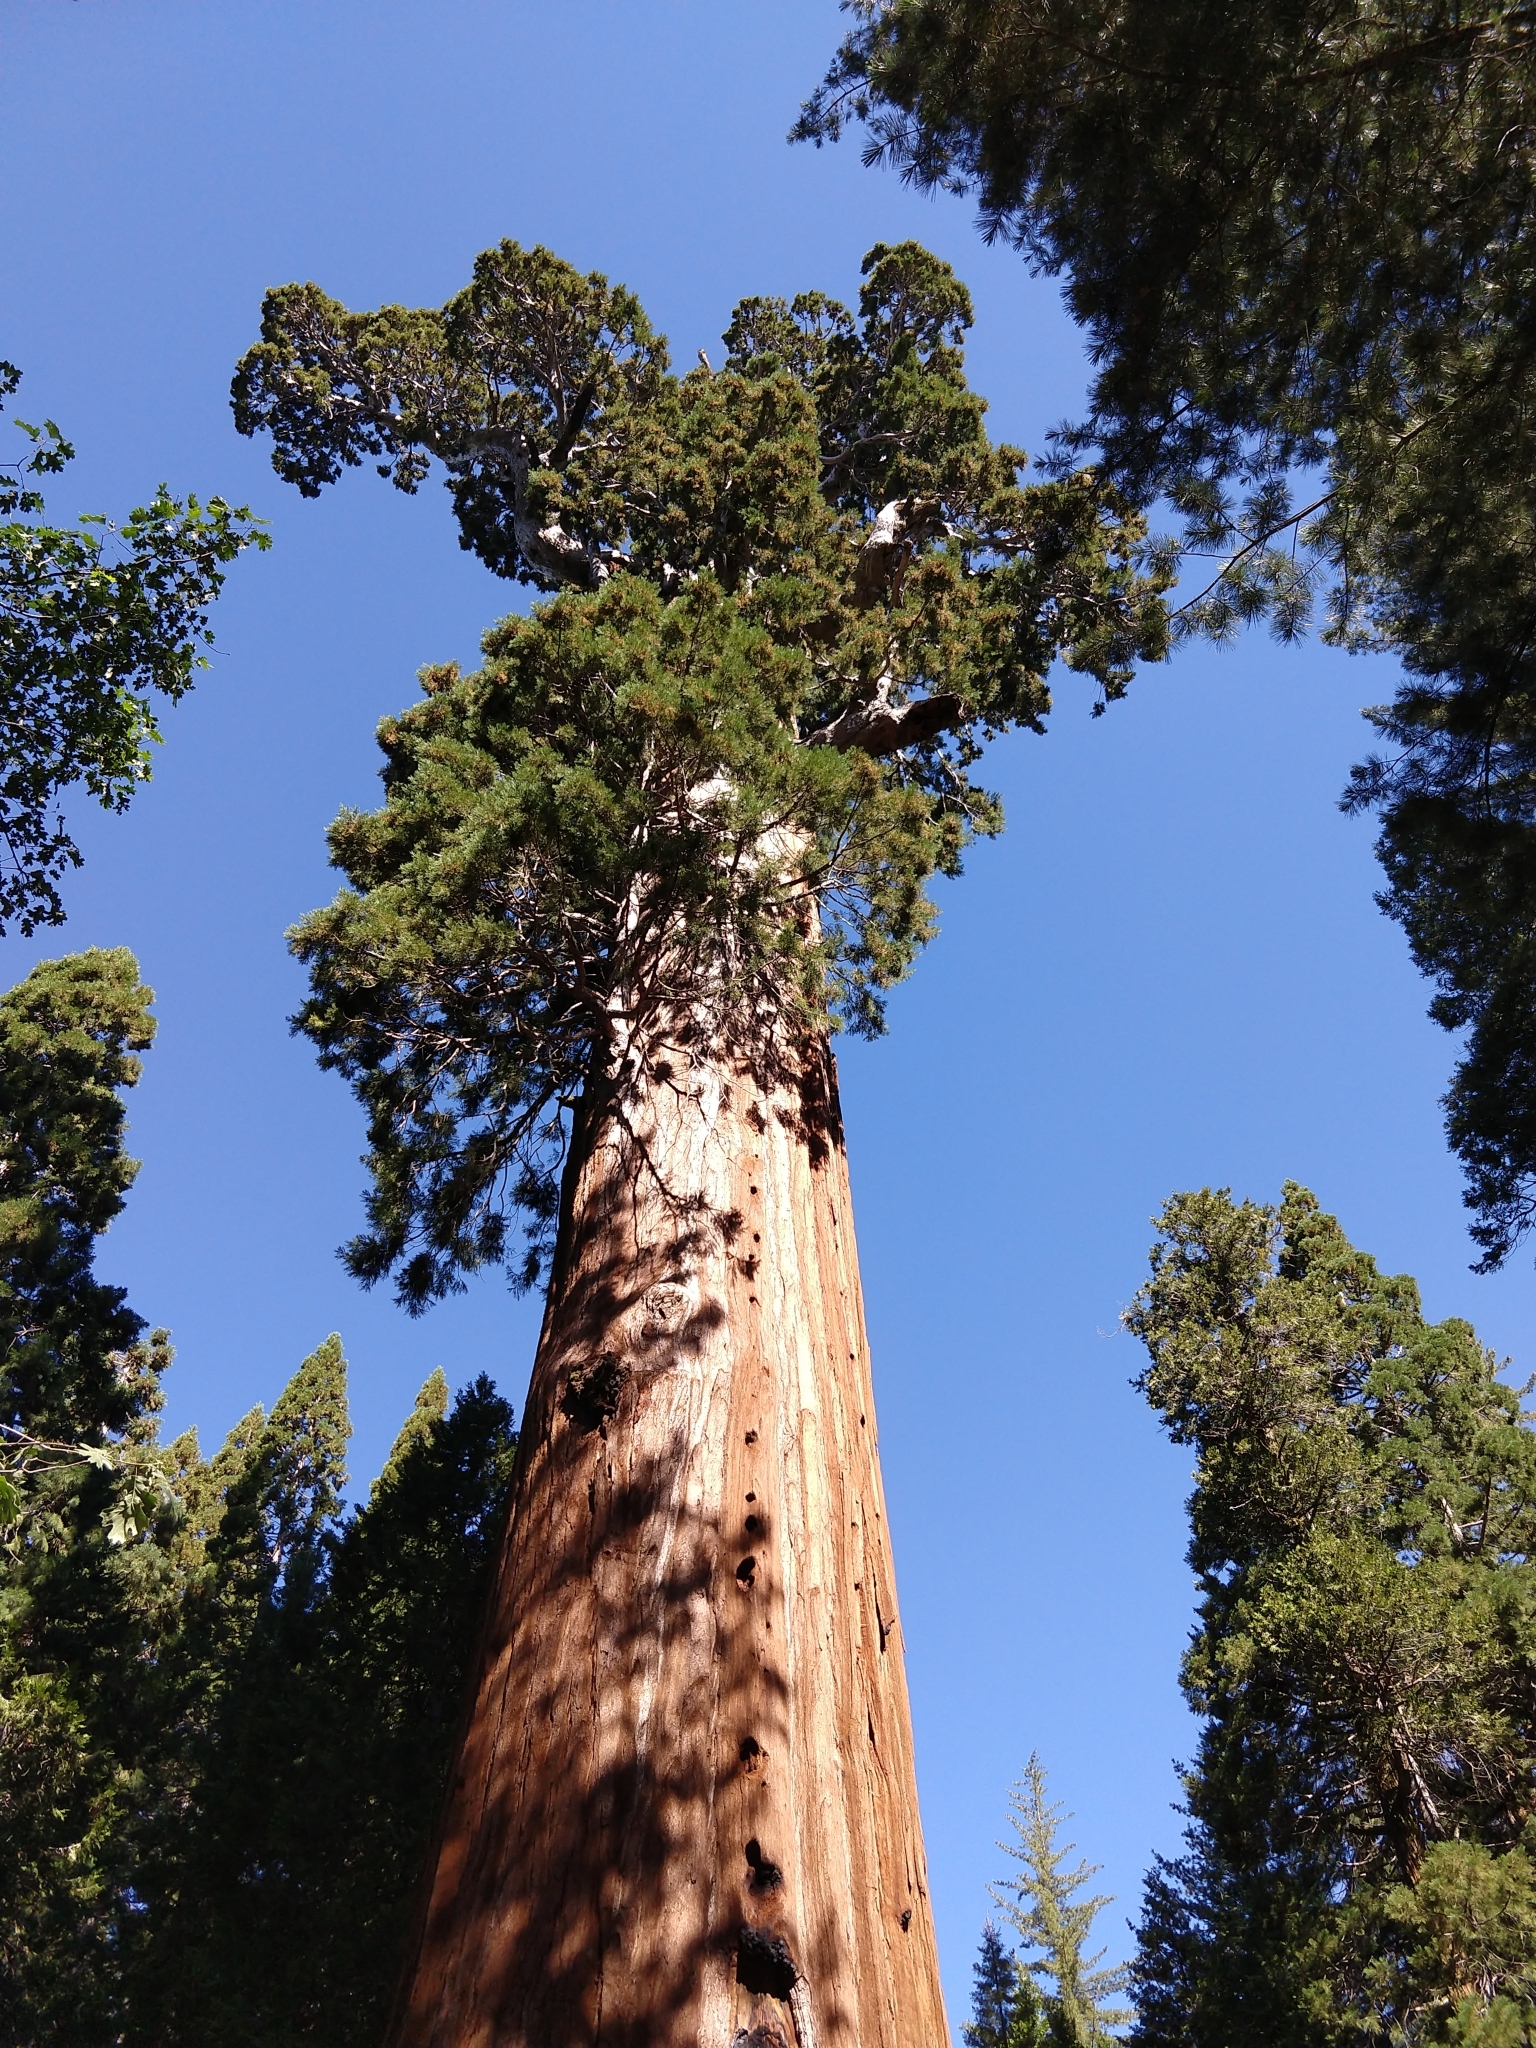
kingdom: Plantae
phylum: Tracheophyta
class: Pinopsida
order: Pinales
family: Cupressaceae
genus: Sequoiadendron
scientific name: Sequoiadendron giganteum
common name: Wellingtonia
